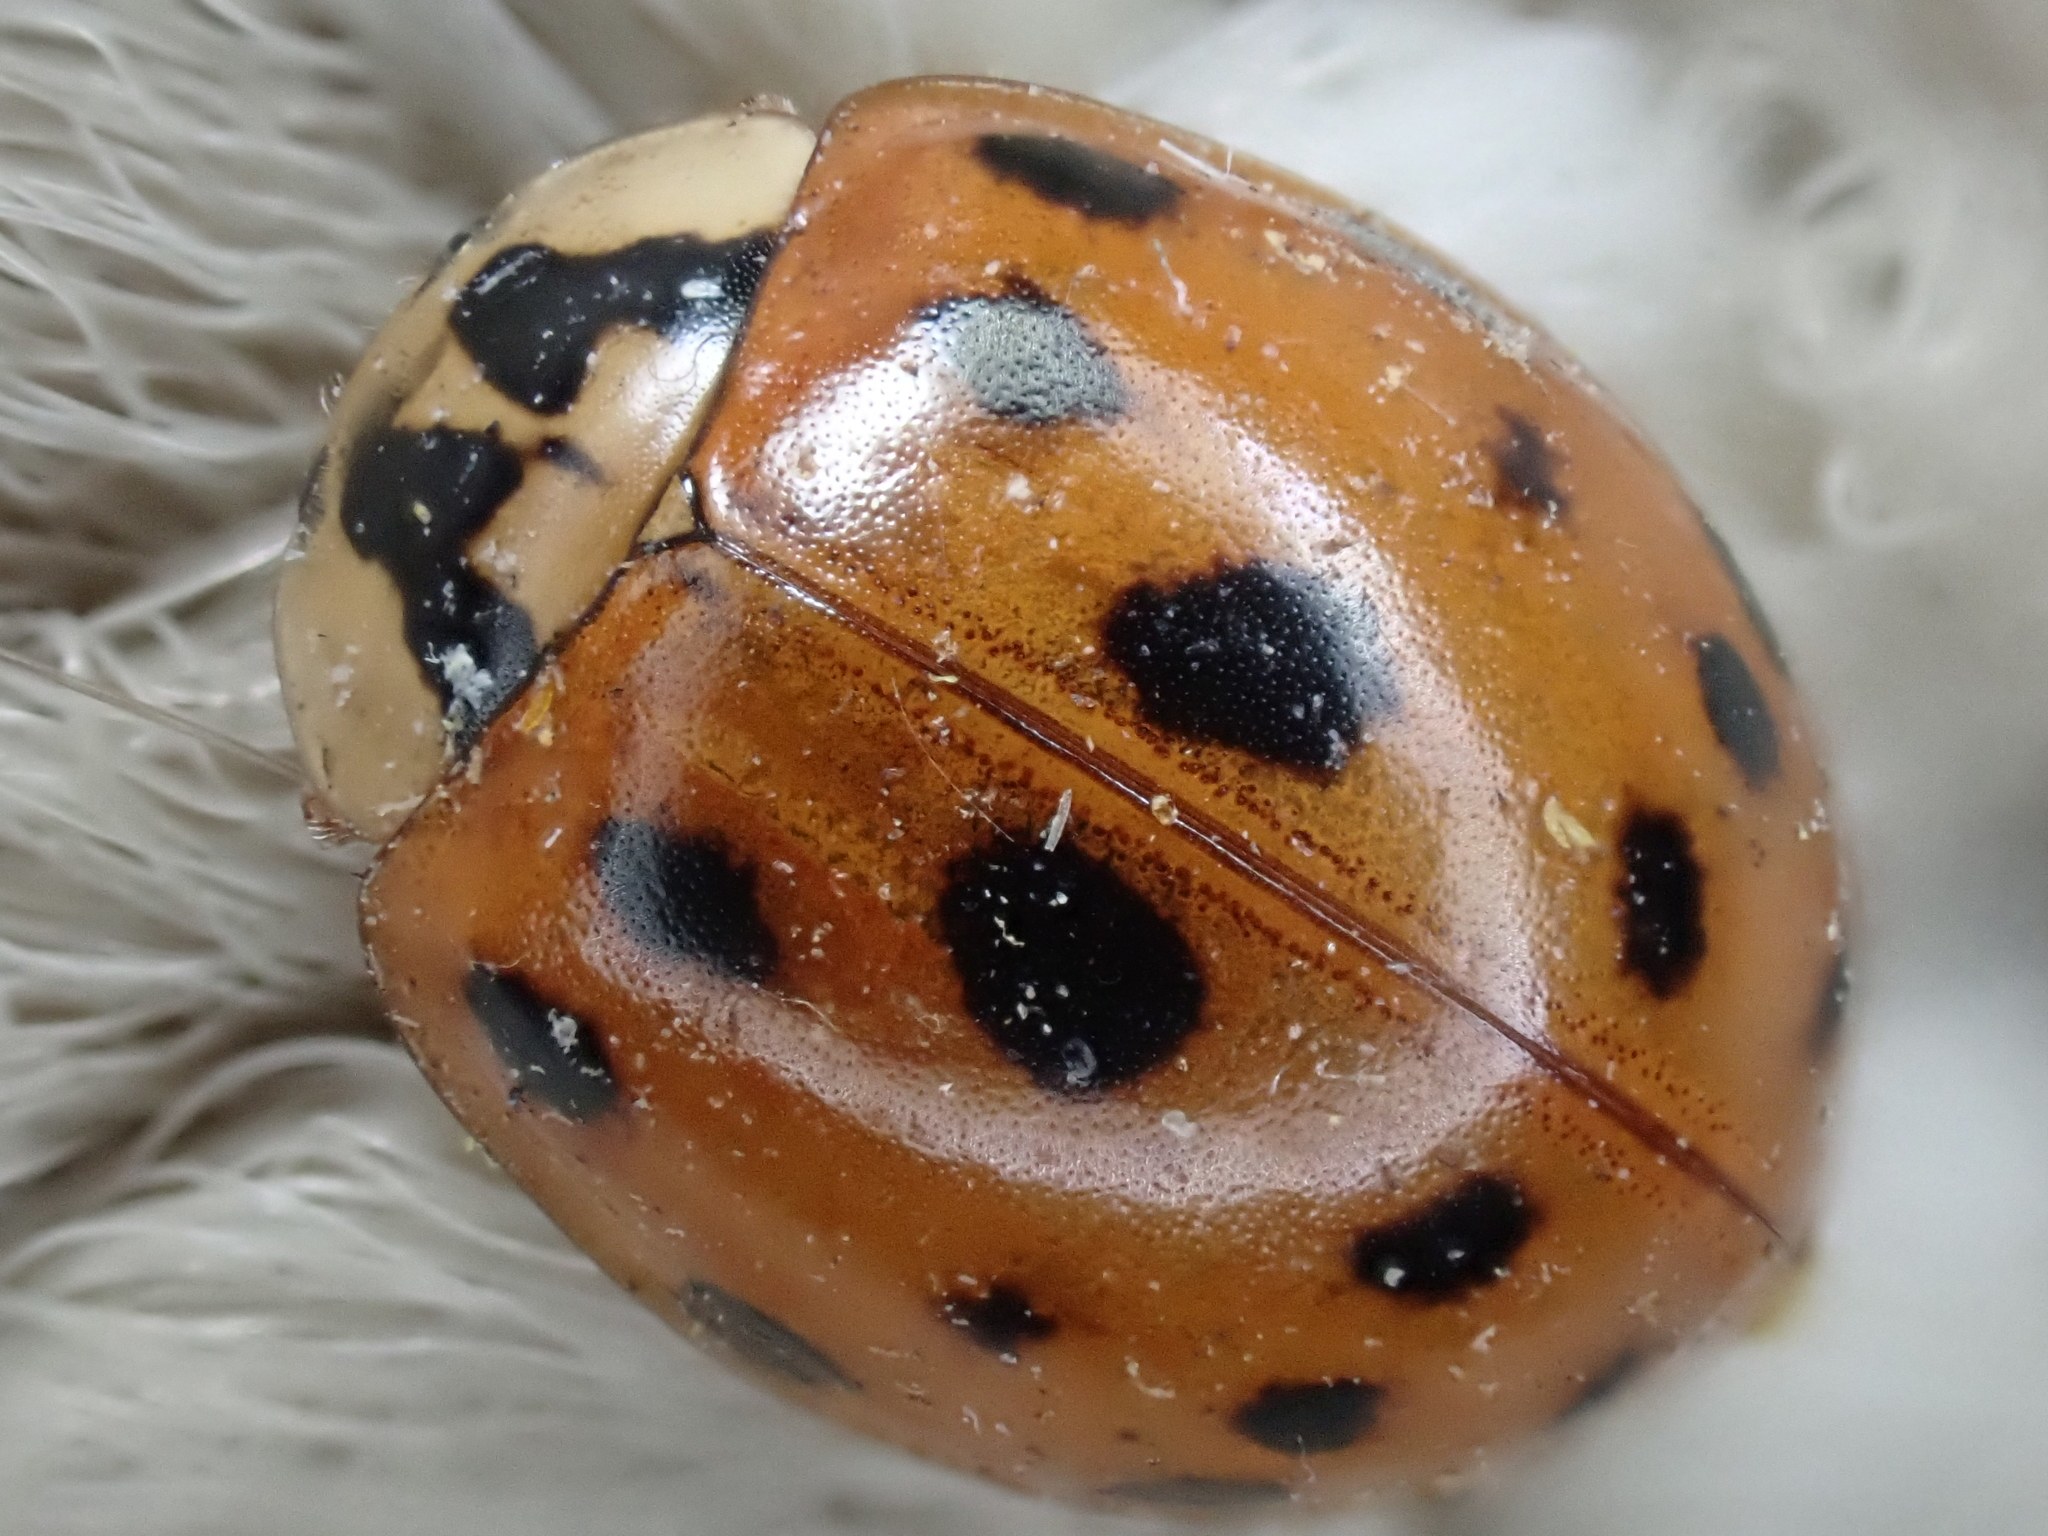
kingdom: Animalia
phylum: Arthropoda
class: Insecta
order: Coleoptera
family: Coccinellidae
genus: Harmonia
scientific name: Harmonia axyridis
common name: Harlequin ladybird
